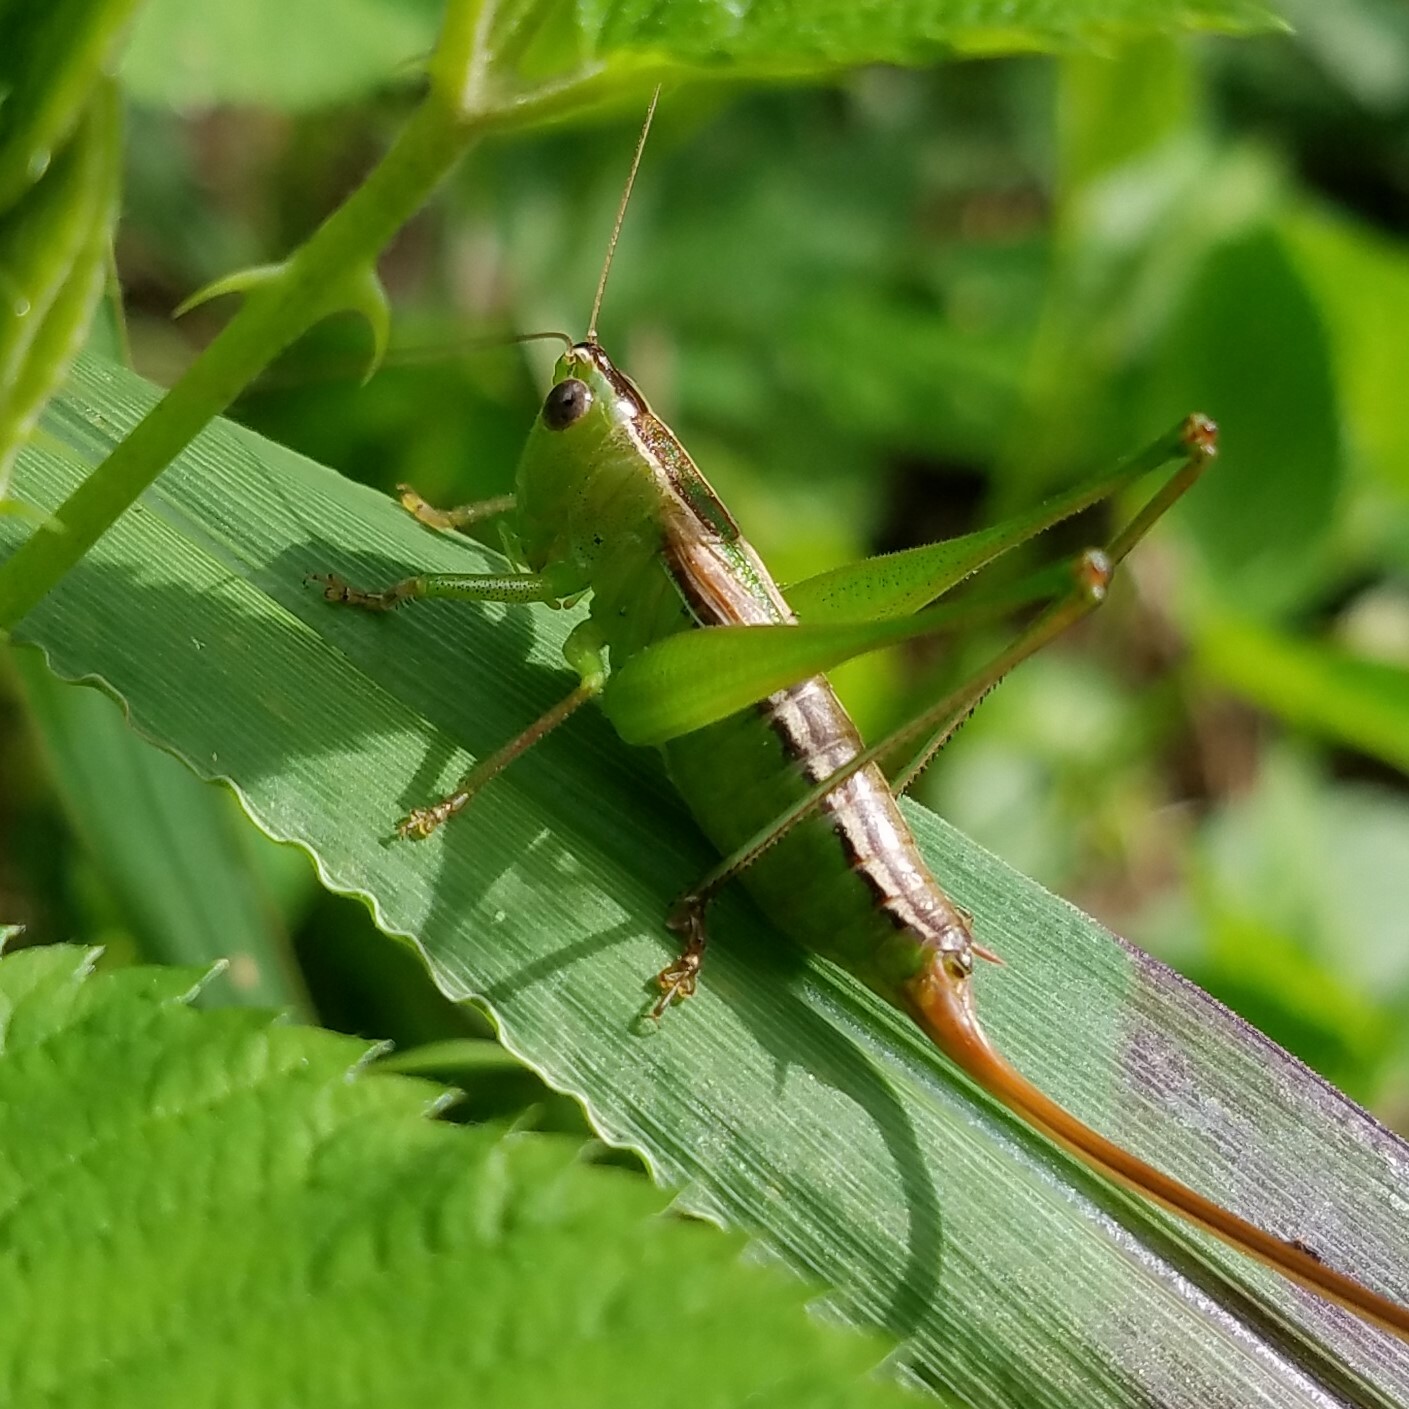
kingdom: Animalia
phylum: Arthropoda
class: Insecta
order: Orthoptera
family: Tettigoniidae
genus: Conocephalus
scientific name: Conocephalus strictus
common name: Straight-lanced katydid
